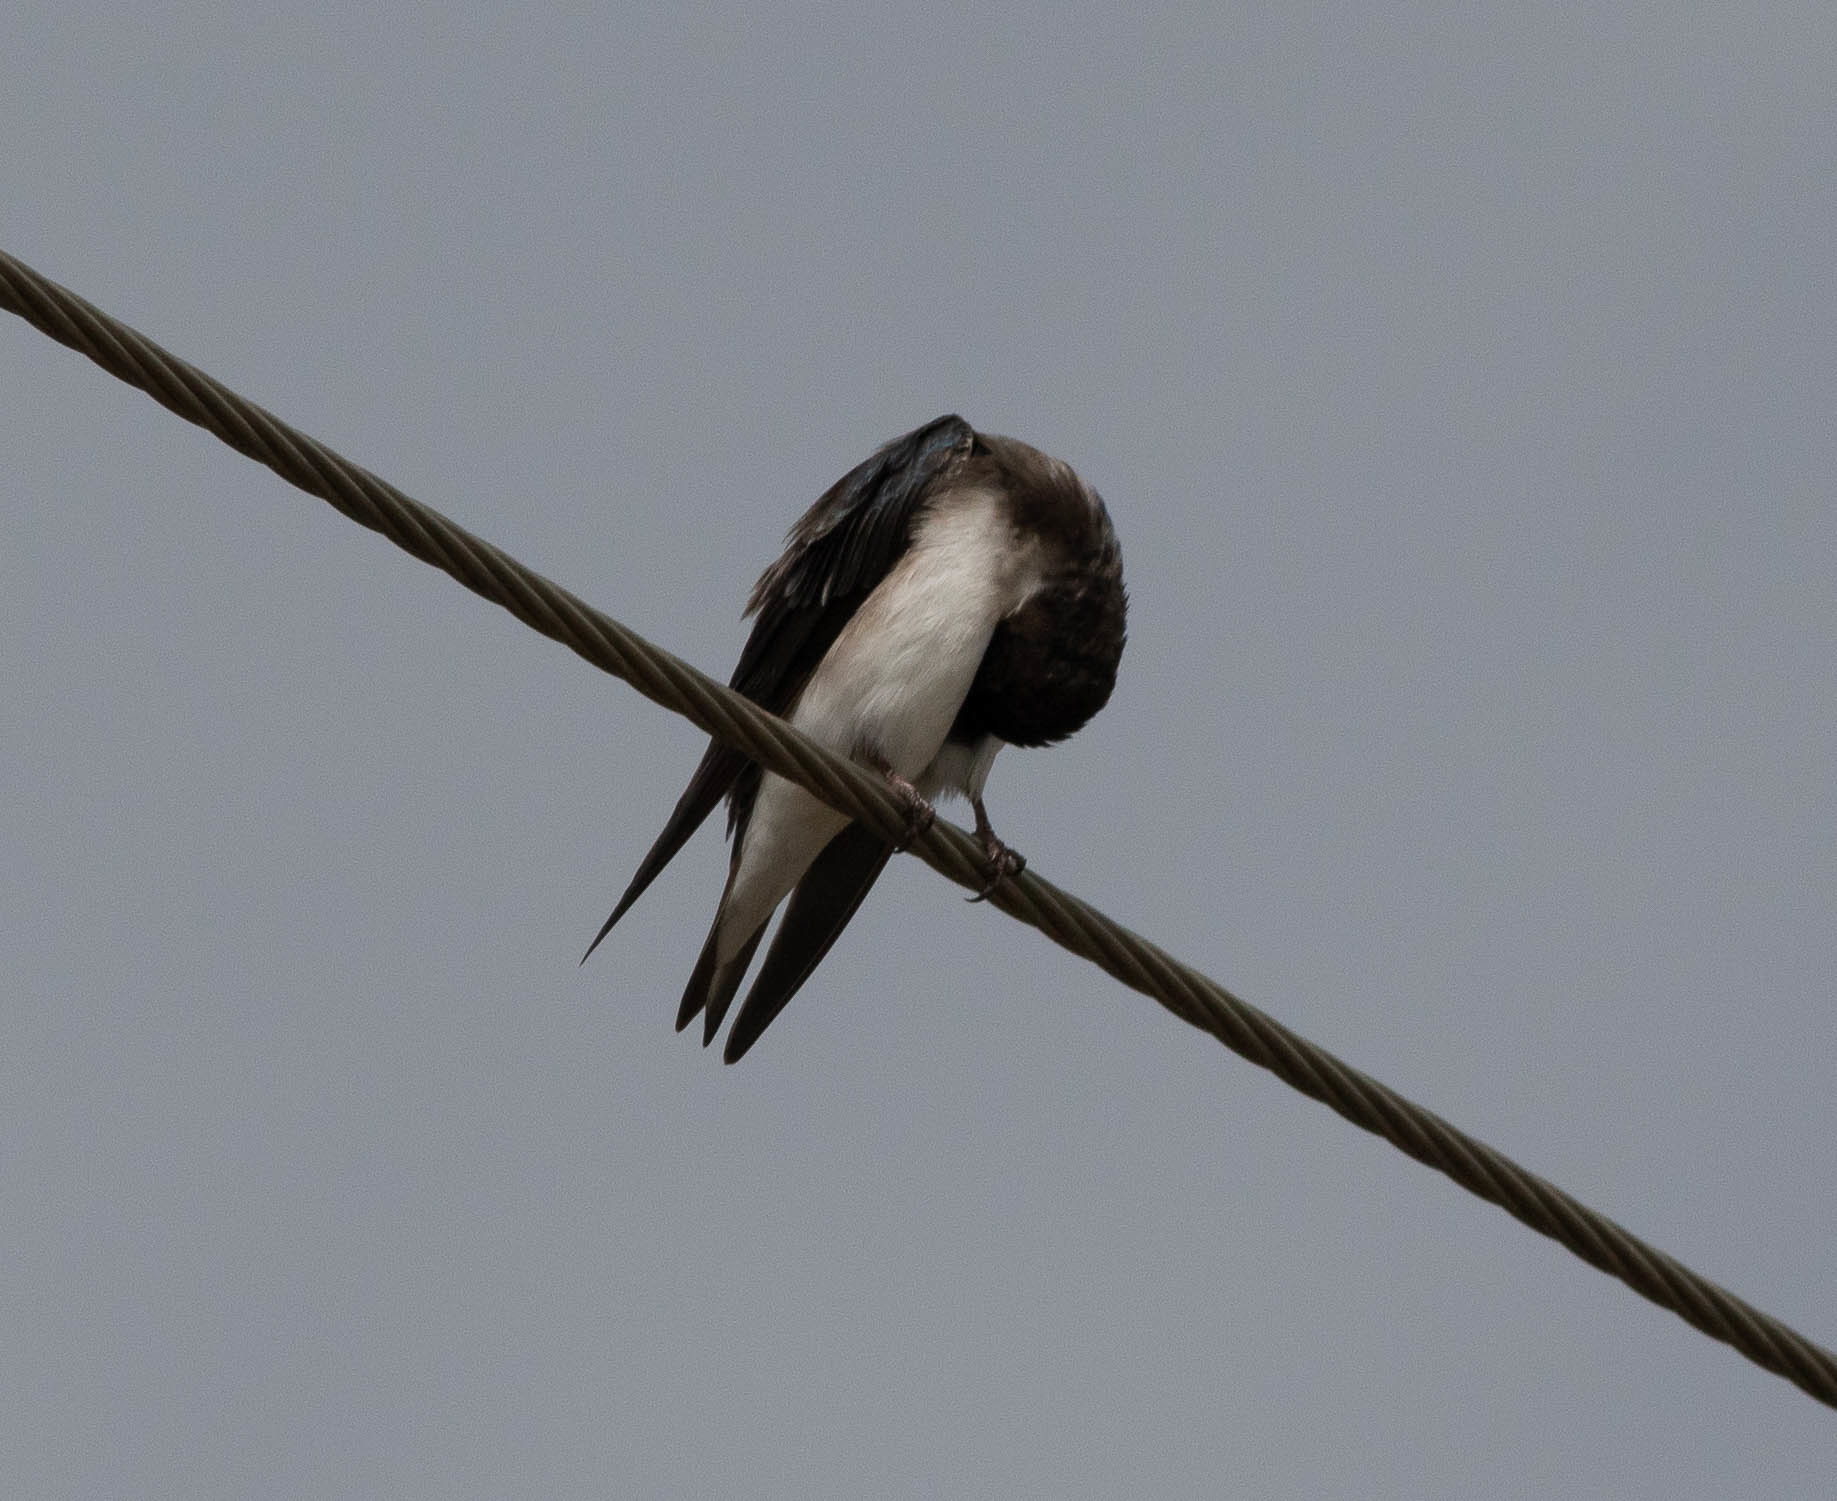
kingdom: Animalia
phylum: Chordata
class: Aves
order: Passeriformes
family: Hirundinidae
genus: Tachycineta
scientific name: Tachycineta bicolor
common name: Tree swallow
